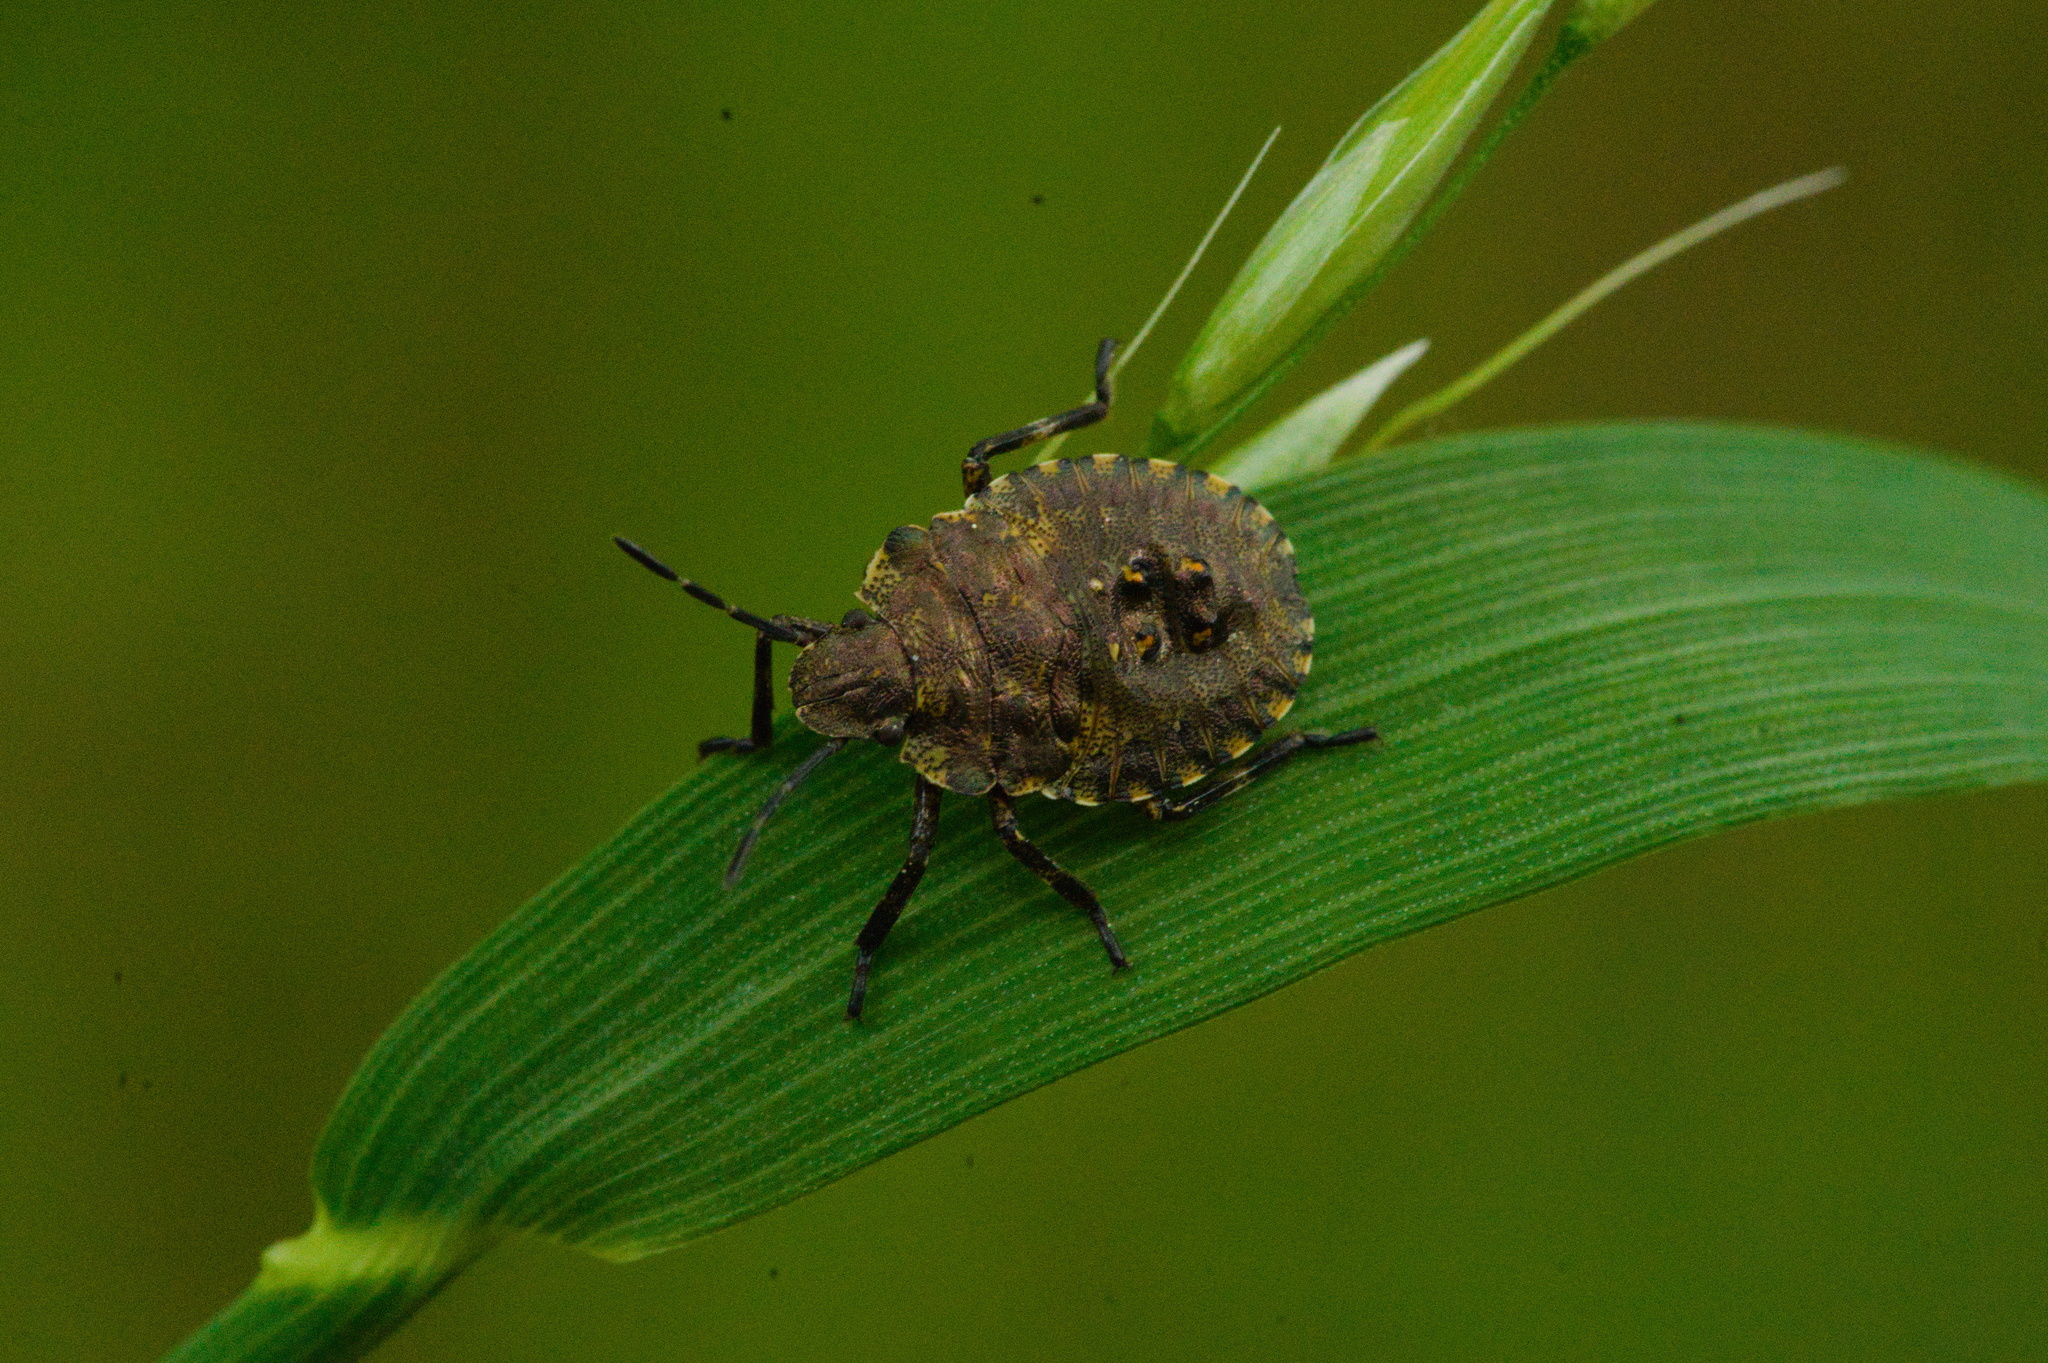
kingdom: Animalia
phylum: Arthropoda
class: Insecta
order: Hemiptera
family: Pentatomidae
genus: Pentatoma
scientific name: Pentatoma rufipes
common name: Forest bug
